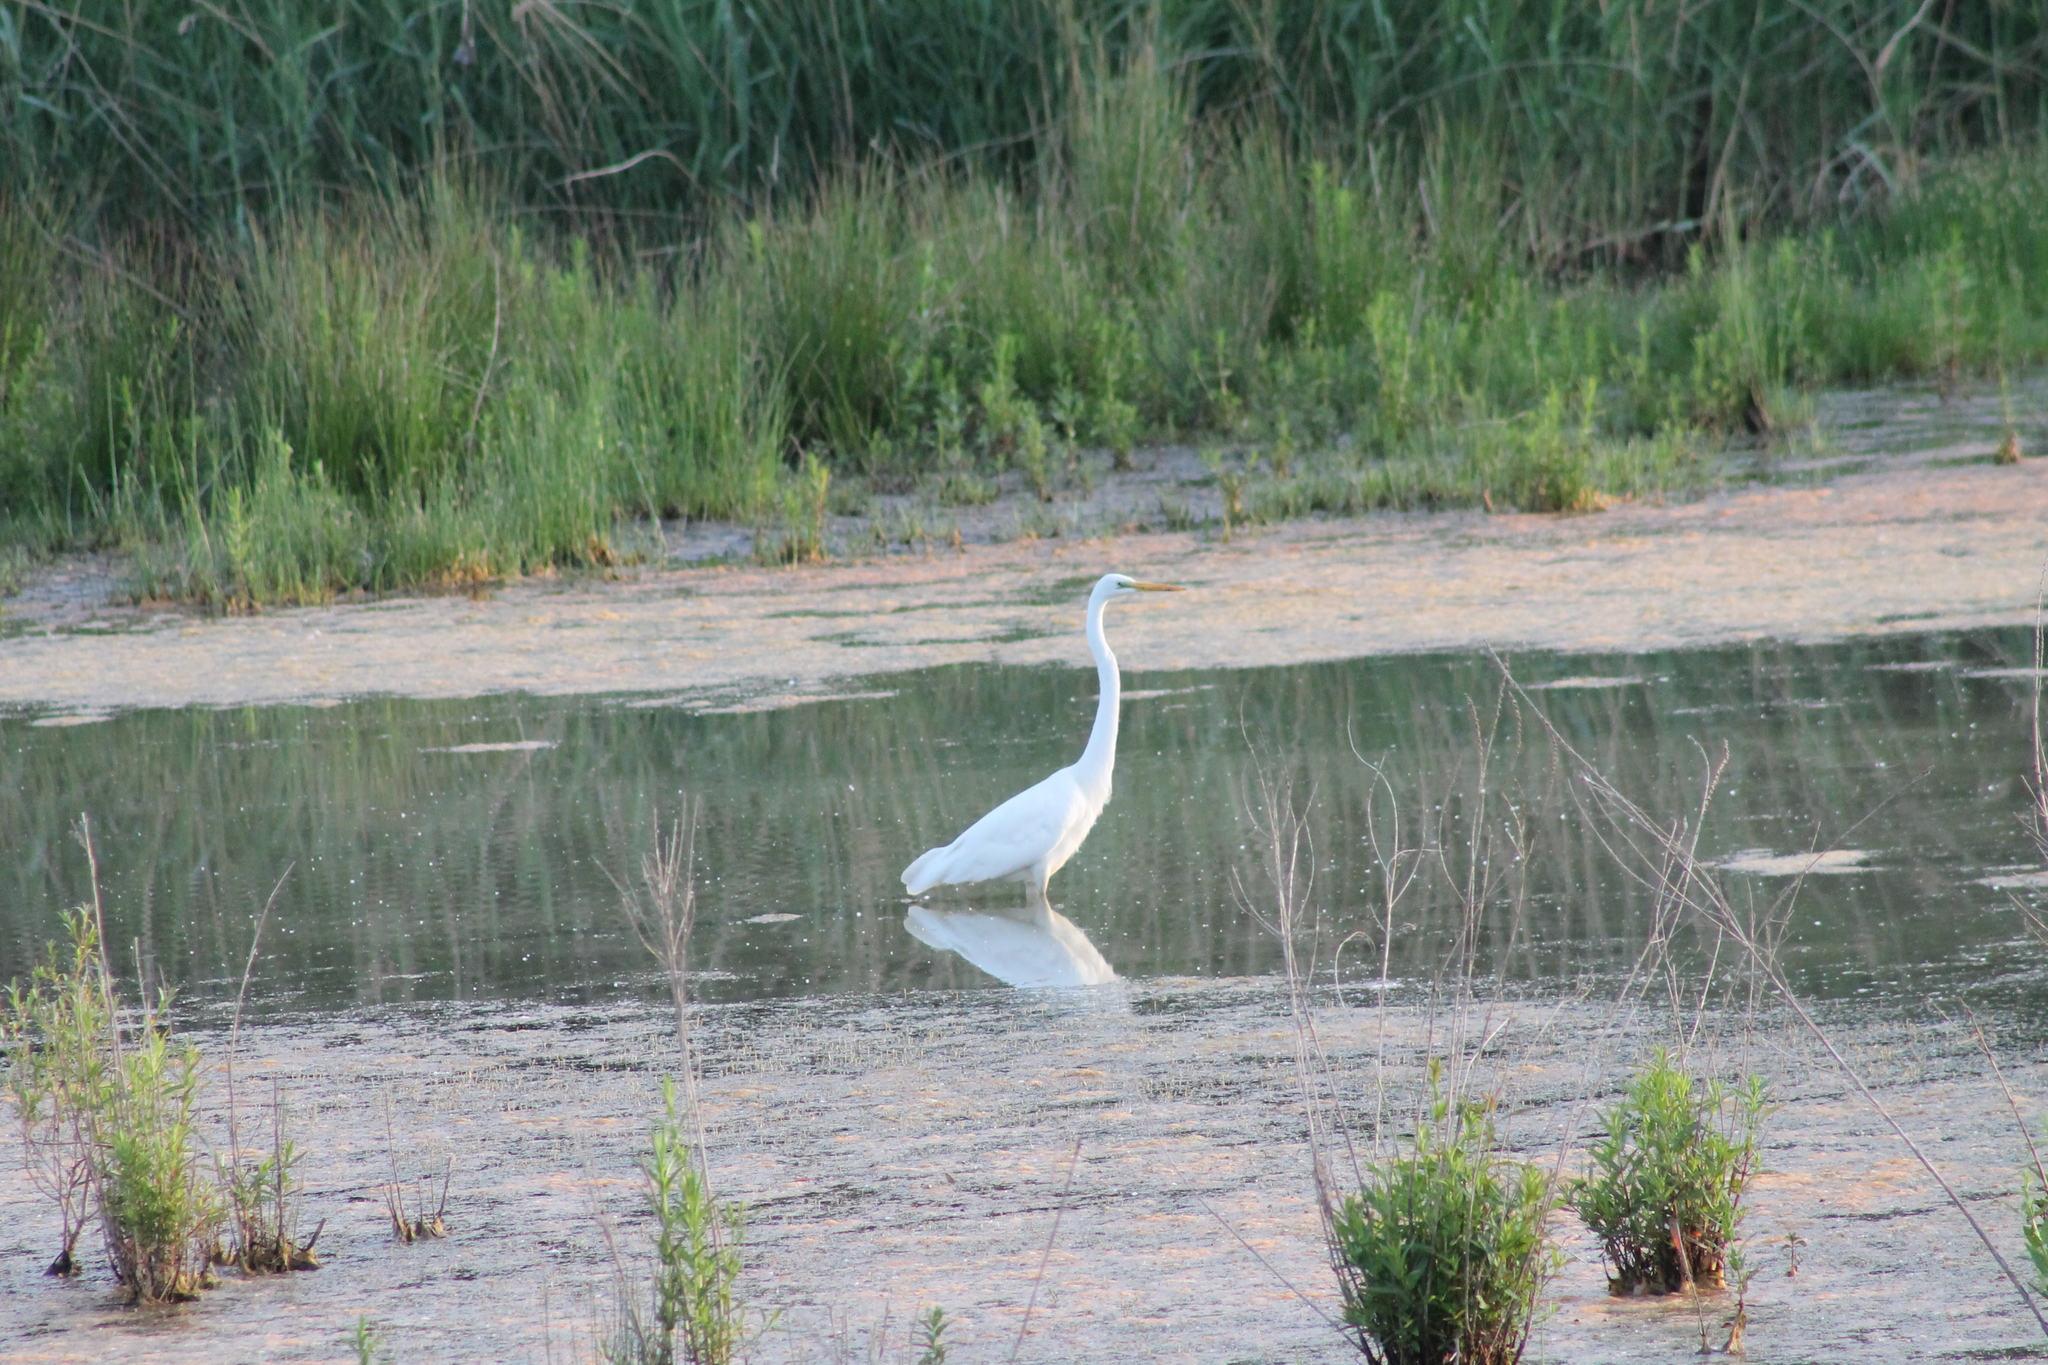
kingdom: Animalia
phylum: Chordata
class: Aves
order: Pelecaniformes
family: Ardeidae
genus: Ardea
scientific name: Ardea alba
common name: Great egret
